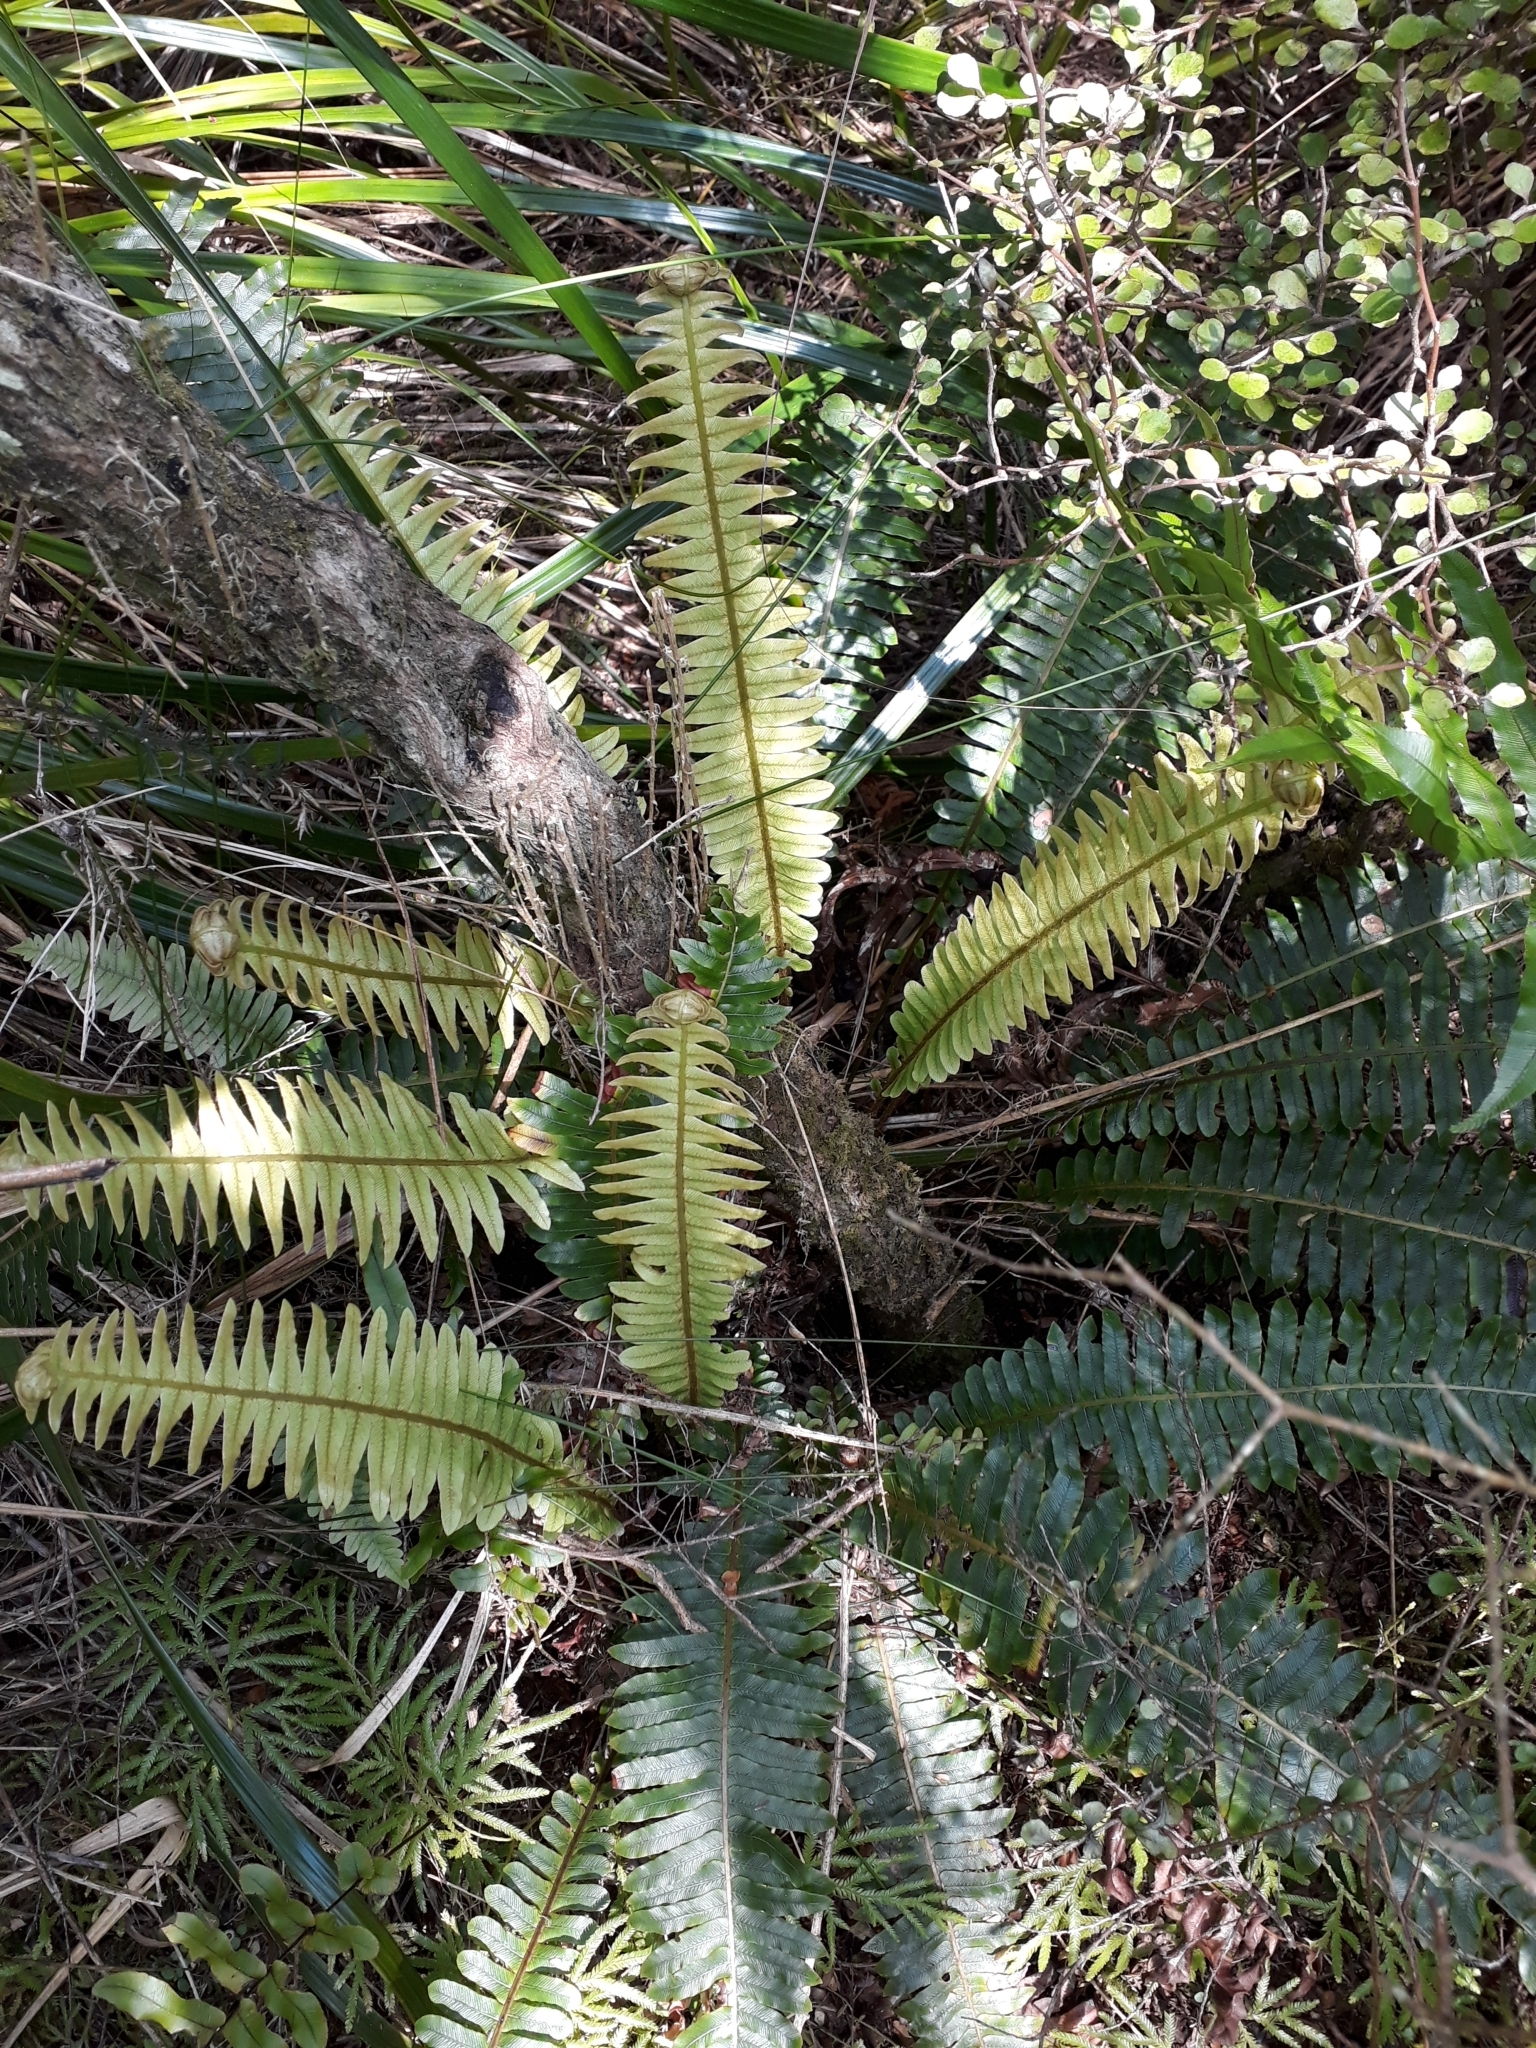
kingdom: Plantae
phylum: Tracheophyta
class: Polypodiopsida
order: Polypodiales
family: Blechnaceae
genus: Lomaria
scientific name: Lomaria discolor
